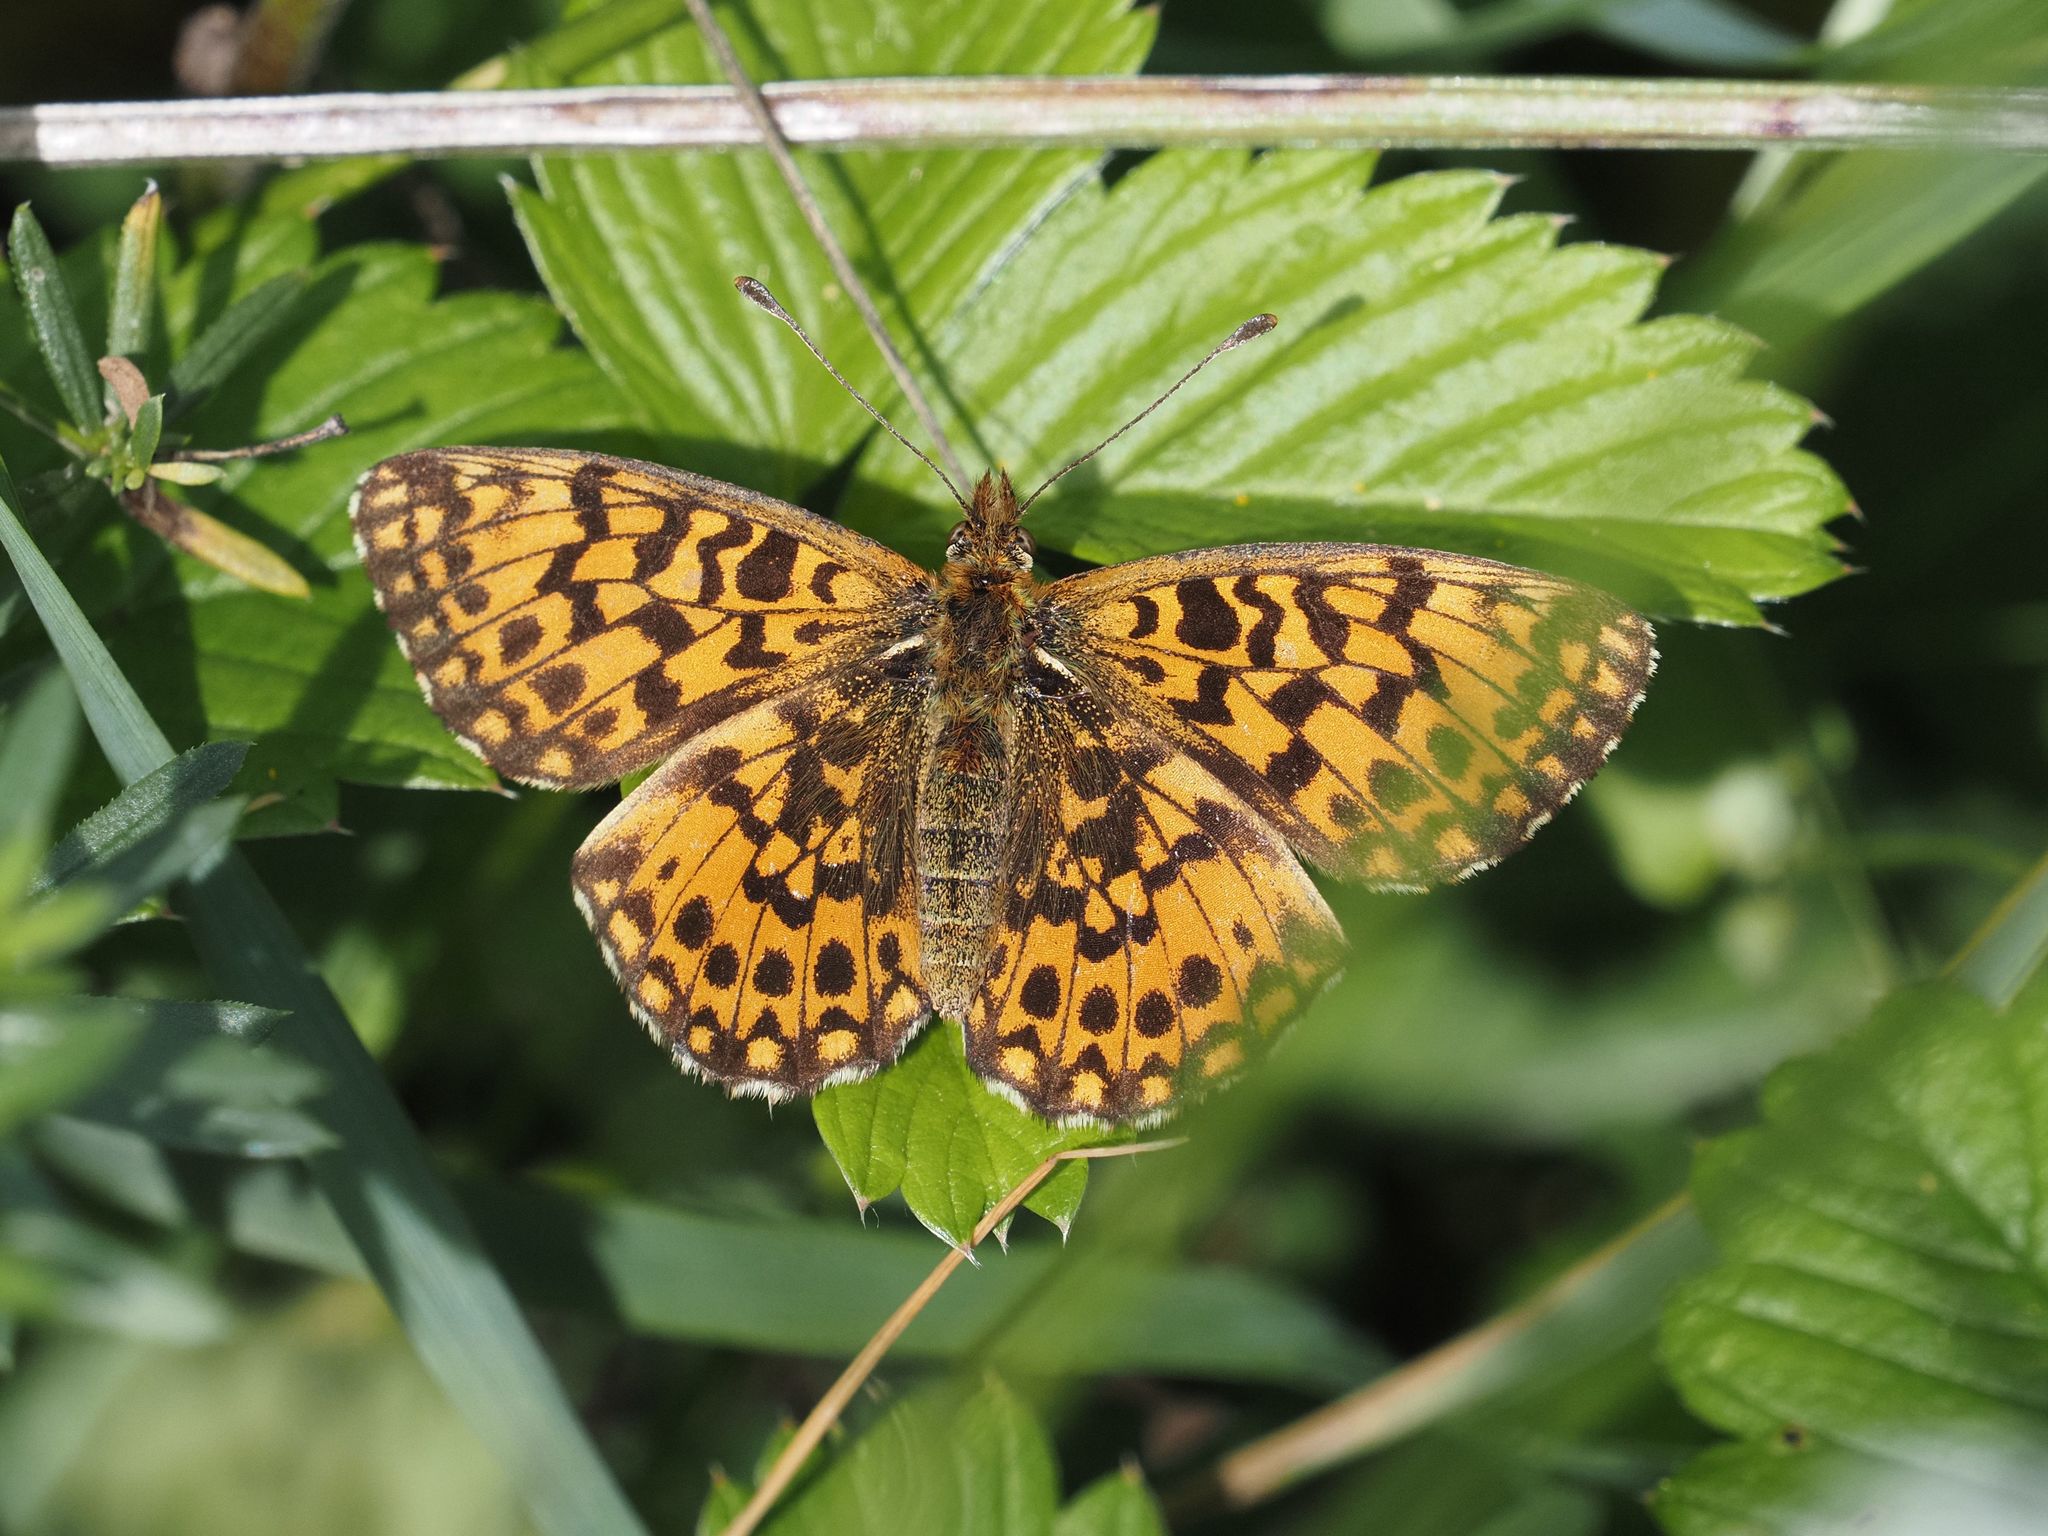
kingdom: Animalia
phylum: Arthropoda
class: Insecta
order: Lepidoptera
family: Nymphalidae
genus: Boloria
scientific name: Boloria dia
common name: Weaver's fritillary
